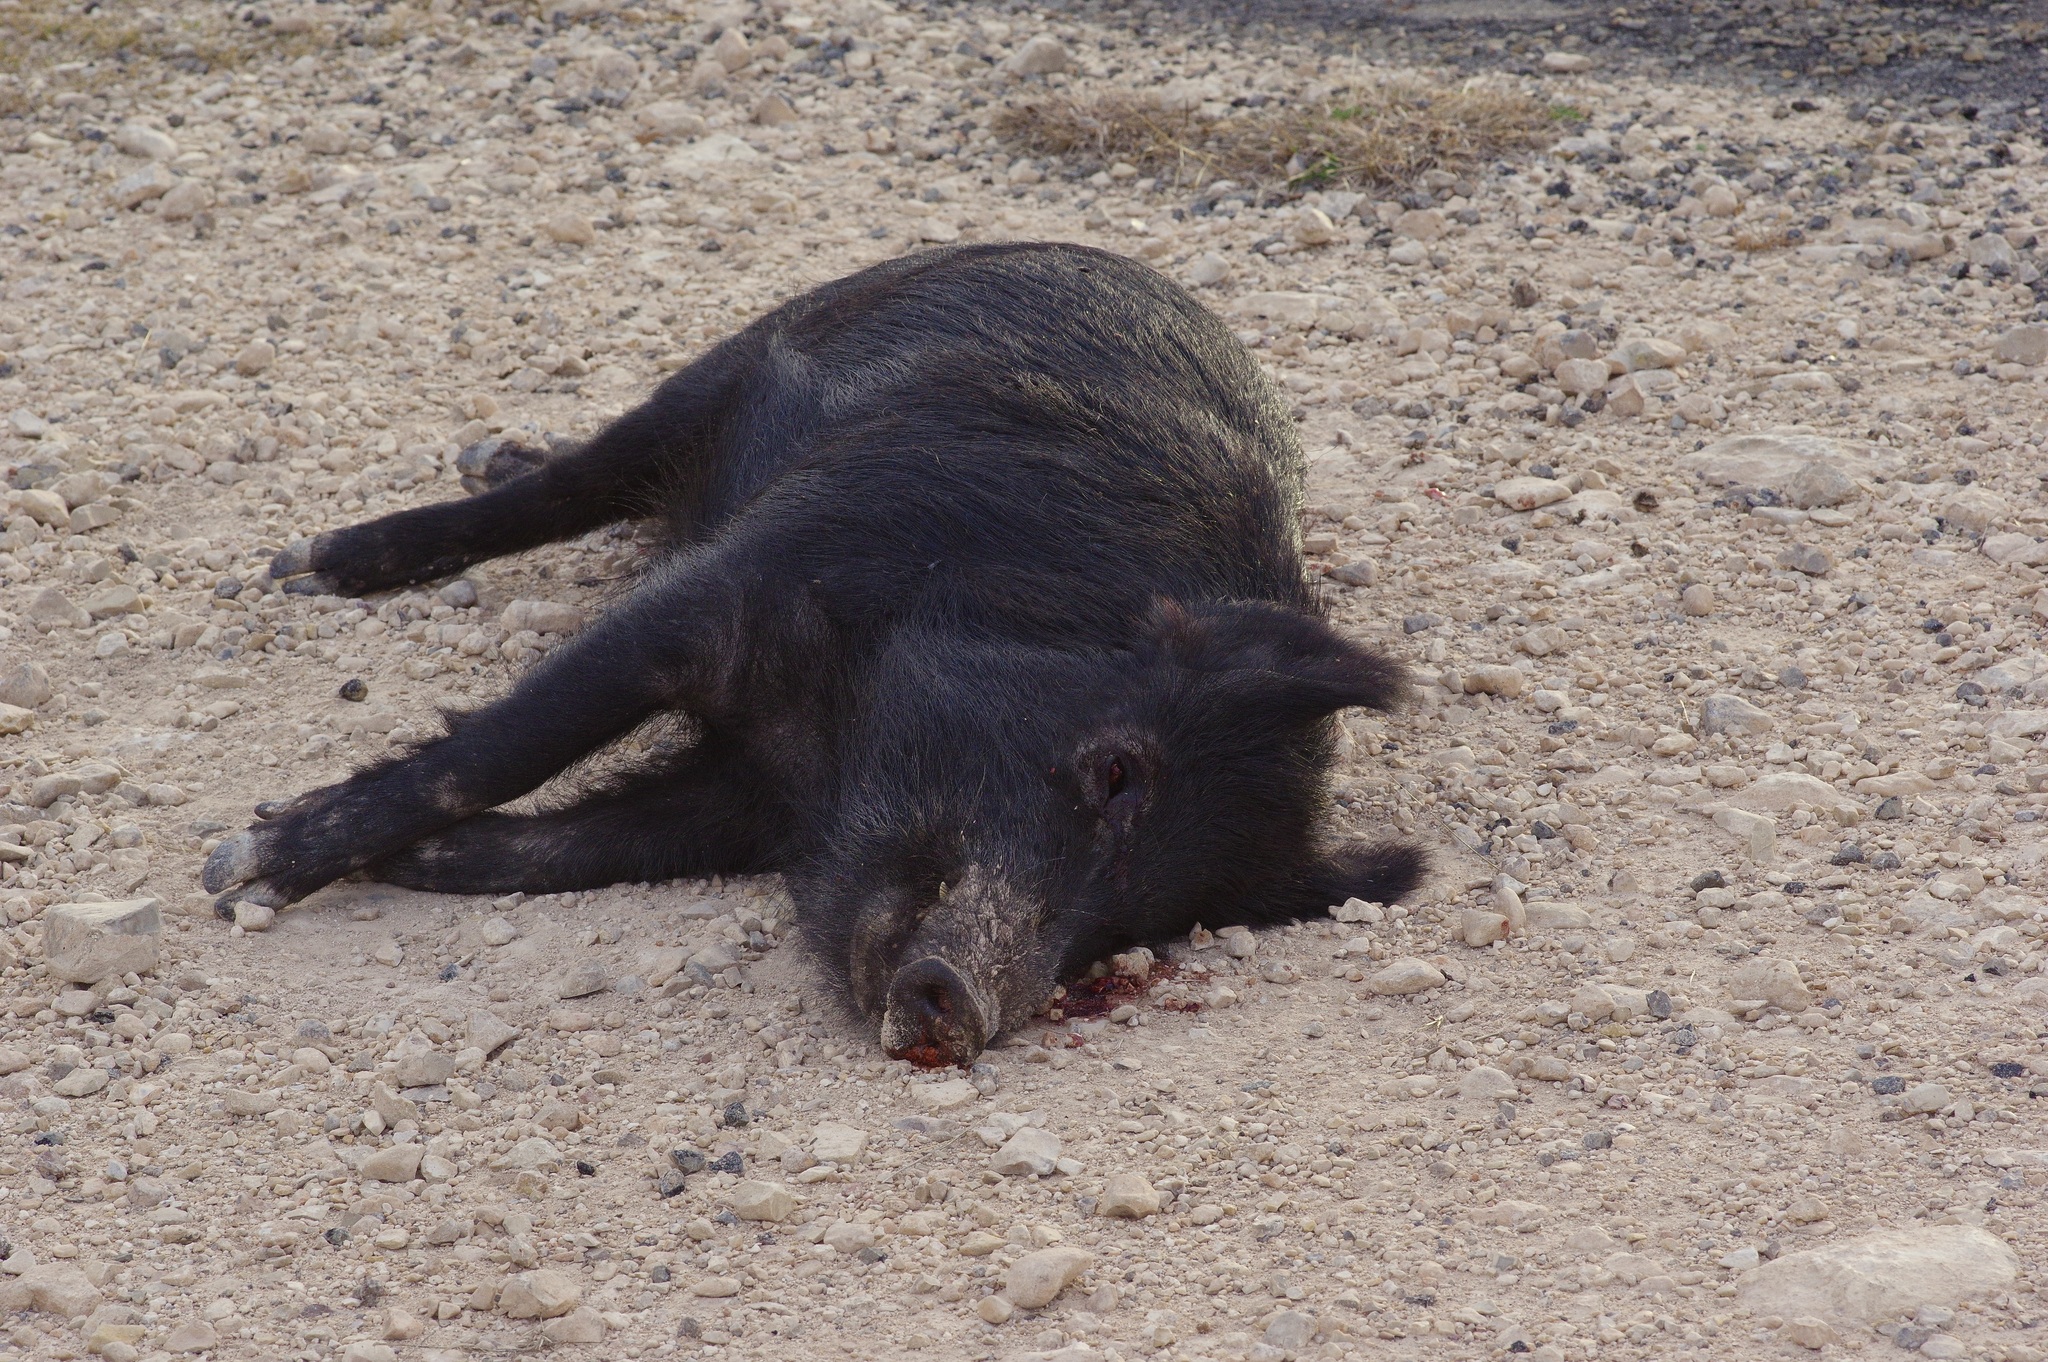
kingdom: Animalia
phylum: Chordata
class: Mammalia
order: Artiodactyla
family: Suidae
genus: Sus
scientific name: Sus scrofa
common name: Wild boar
